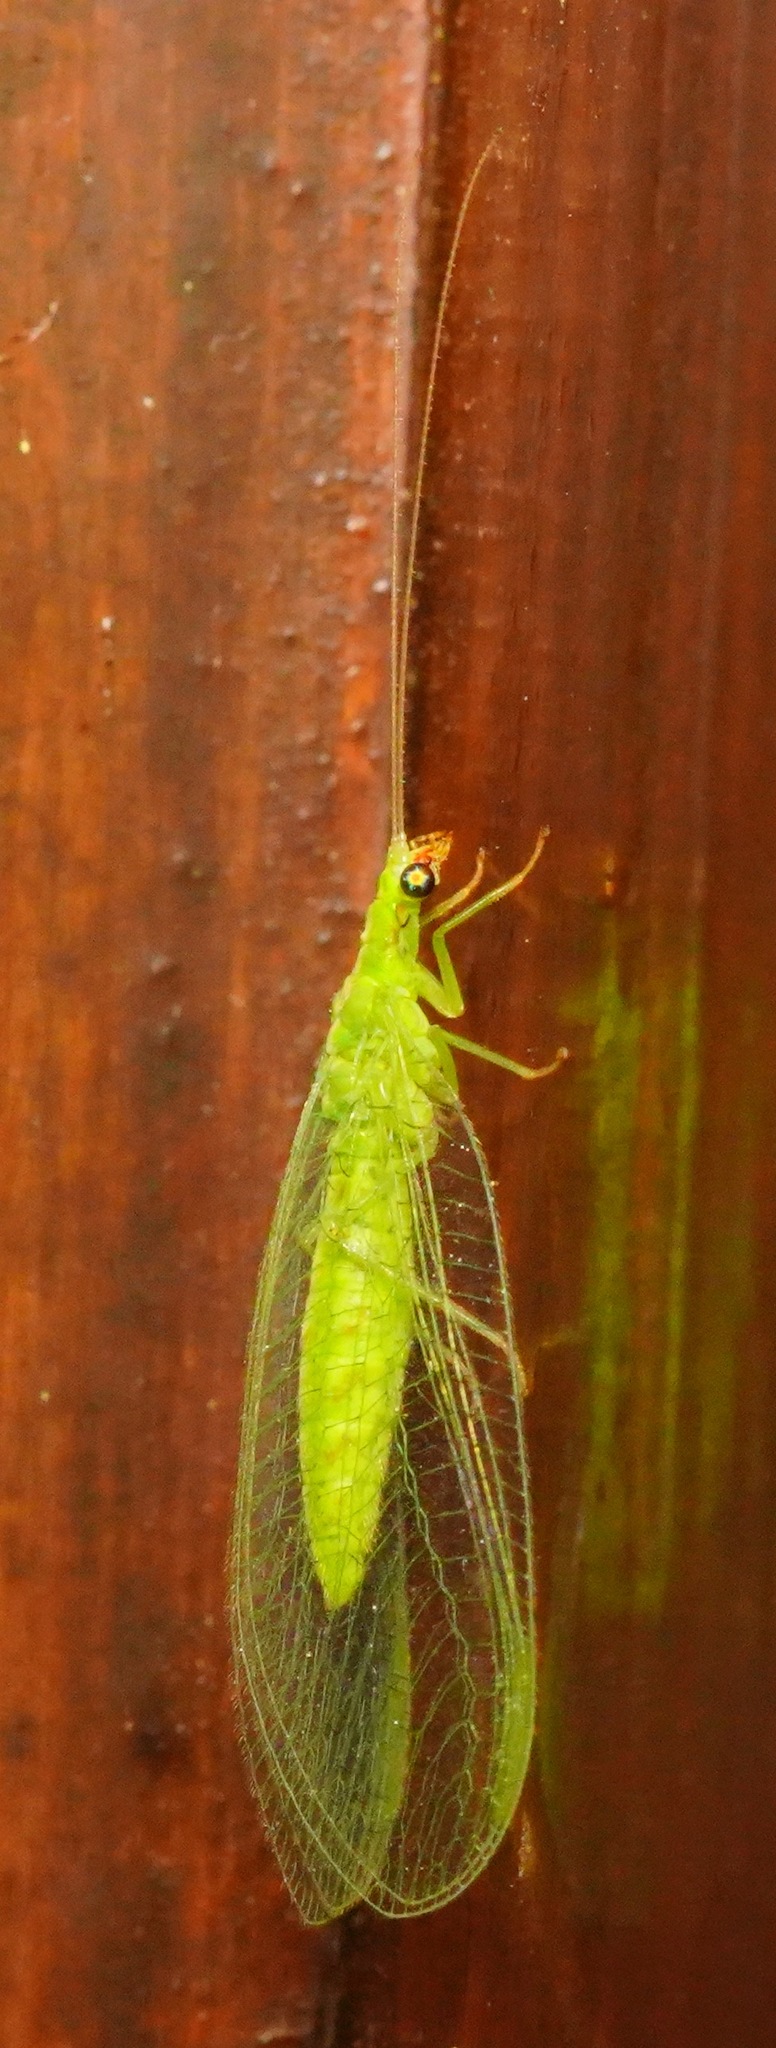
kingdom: Animalia
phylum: Arthropoda
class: Insecta
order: Lepidoptera
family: Noctuidae
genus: Noctua
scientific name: Noctua pronuba
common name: Large yellow underwing
